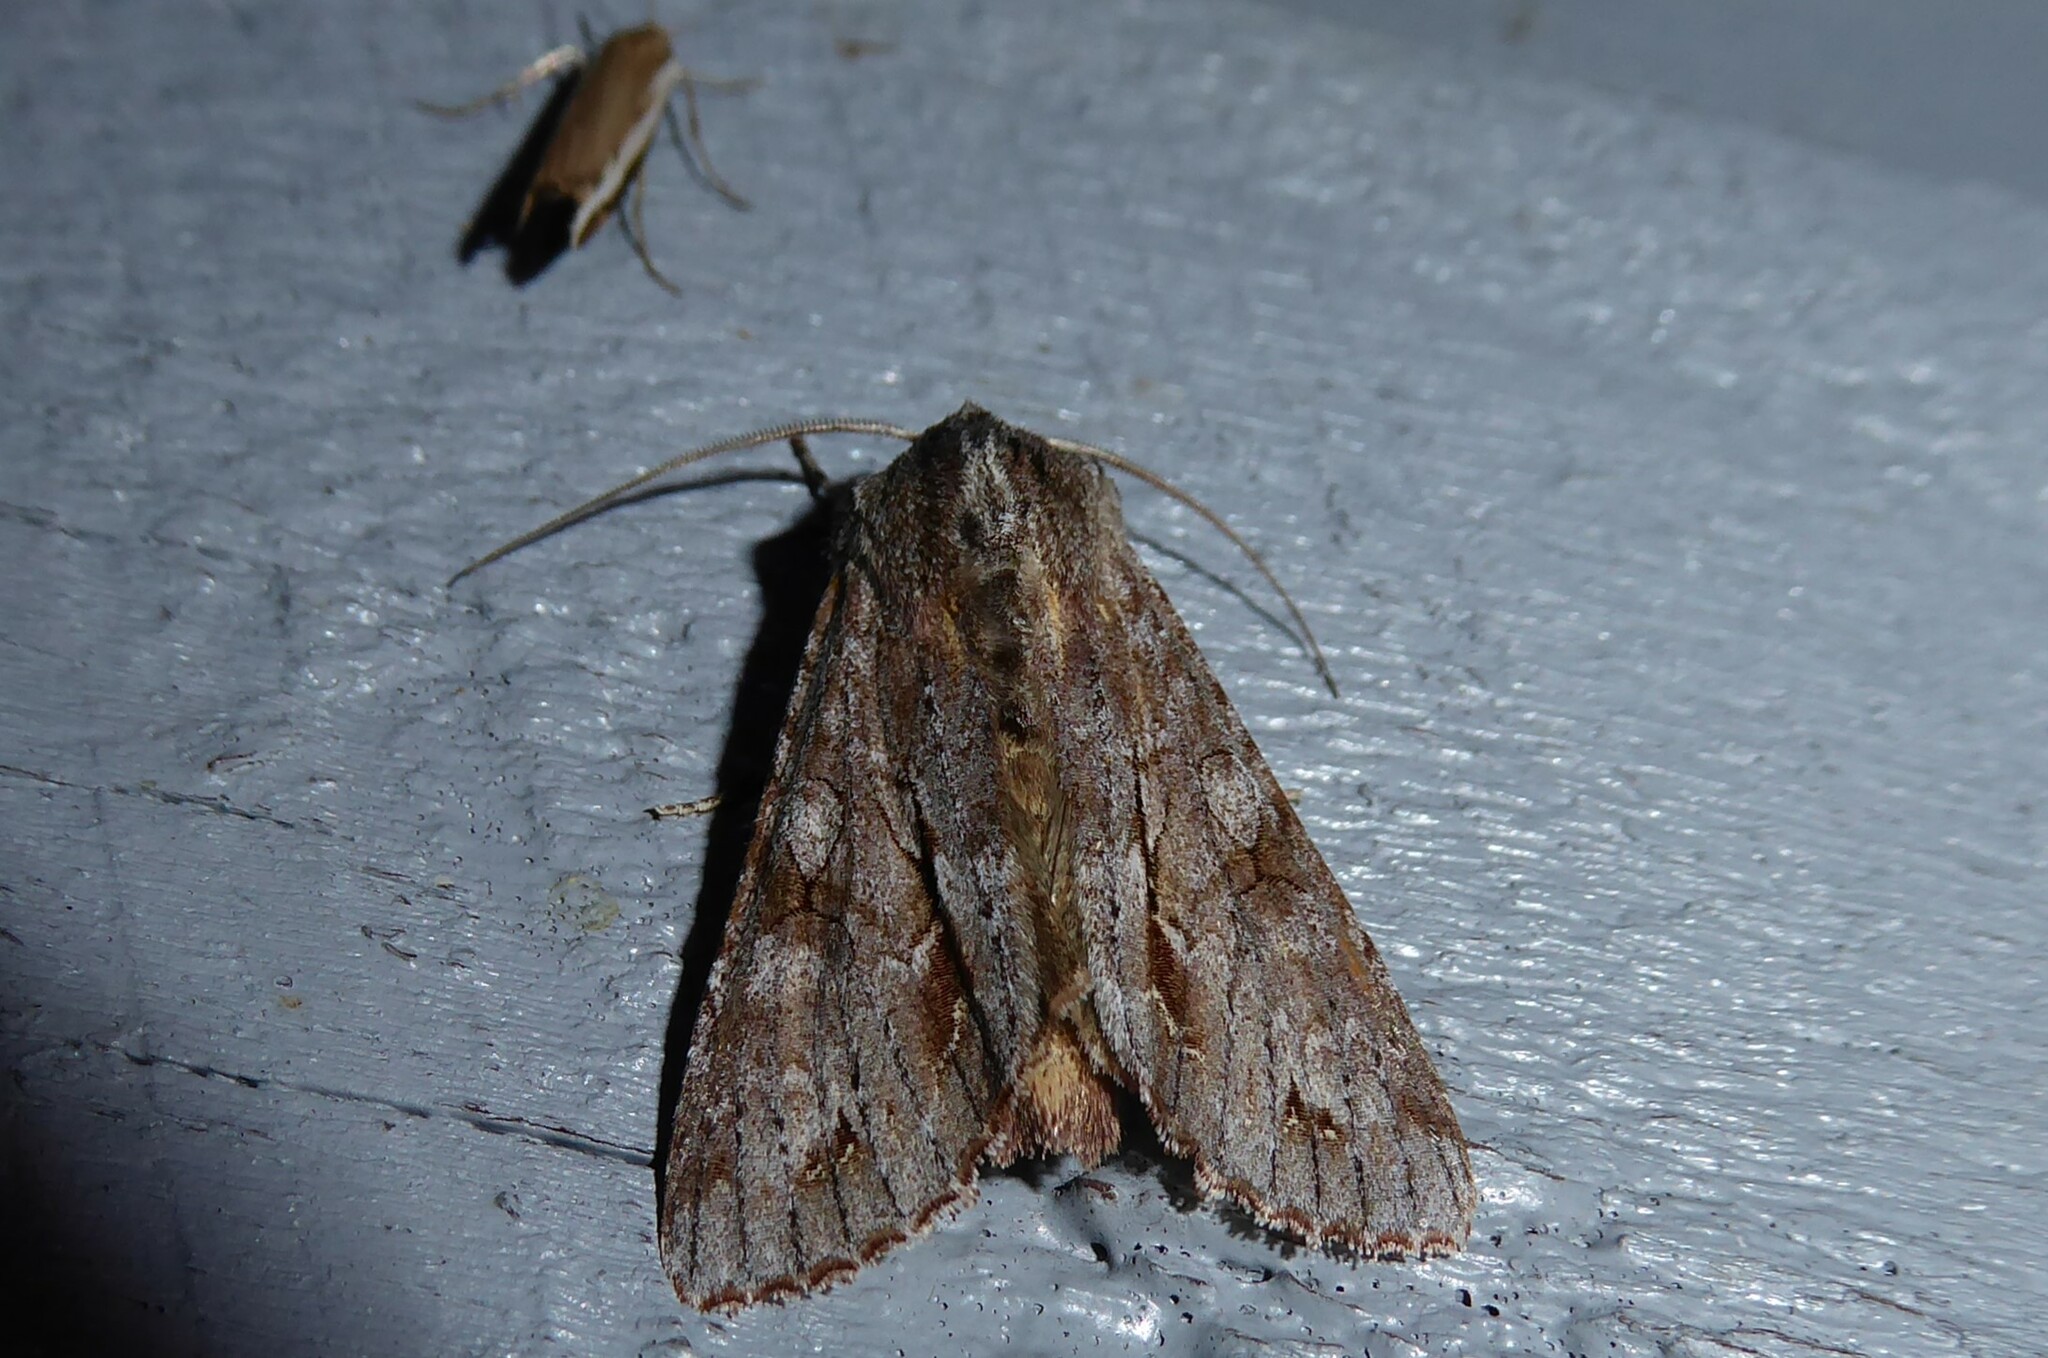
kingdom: Animalia
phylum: Arthropoda
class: Insecta
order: Lepidoptera
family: Noctuidae
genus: Ichneutica
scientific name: Ichneutica
